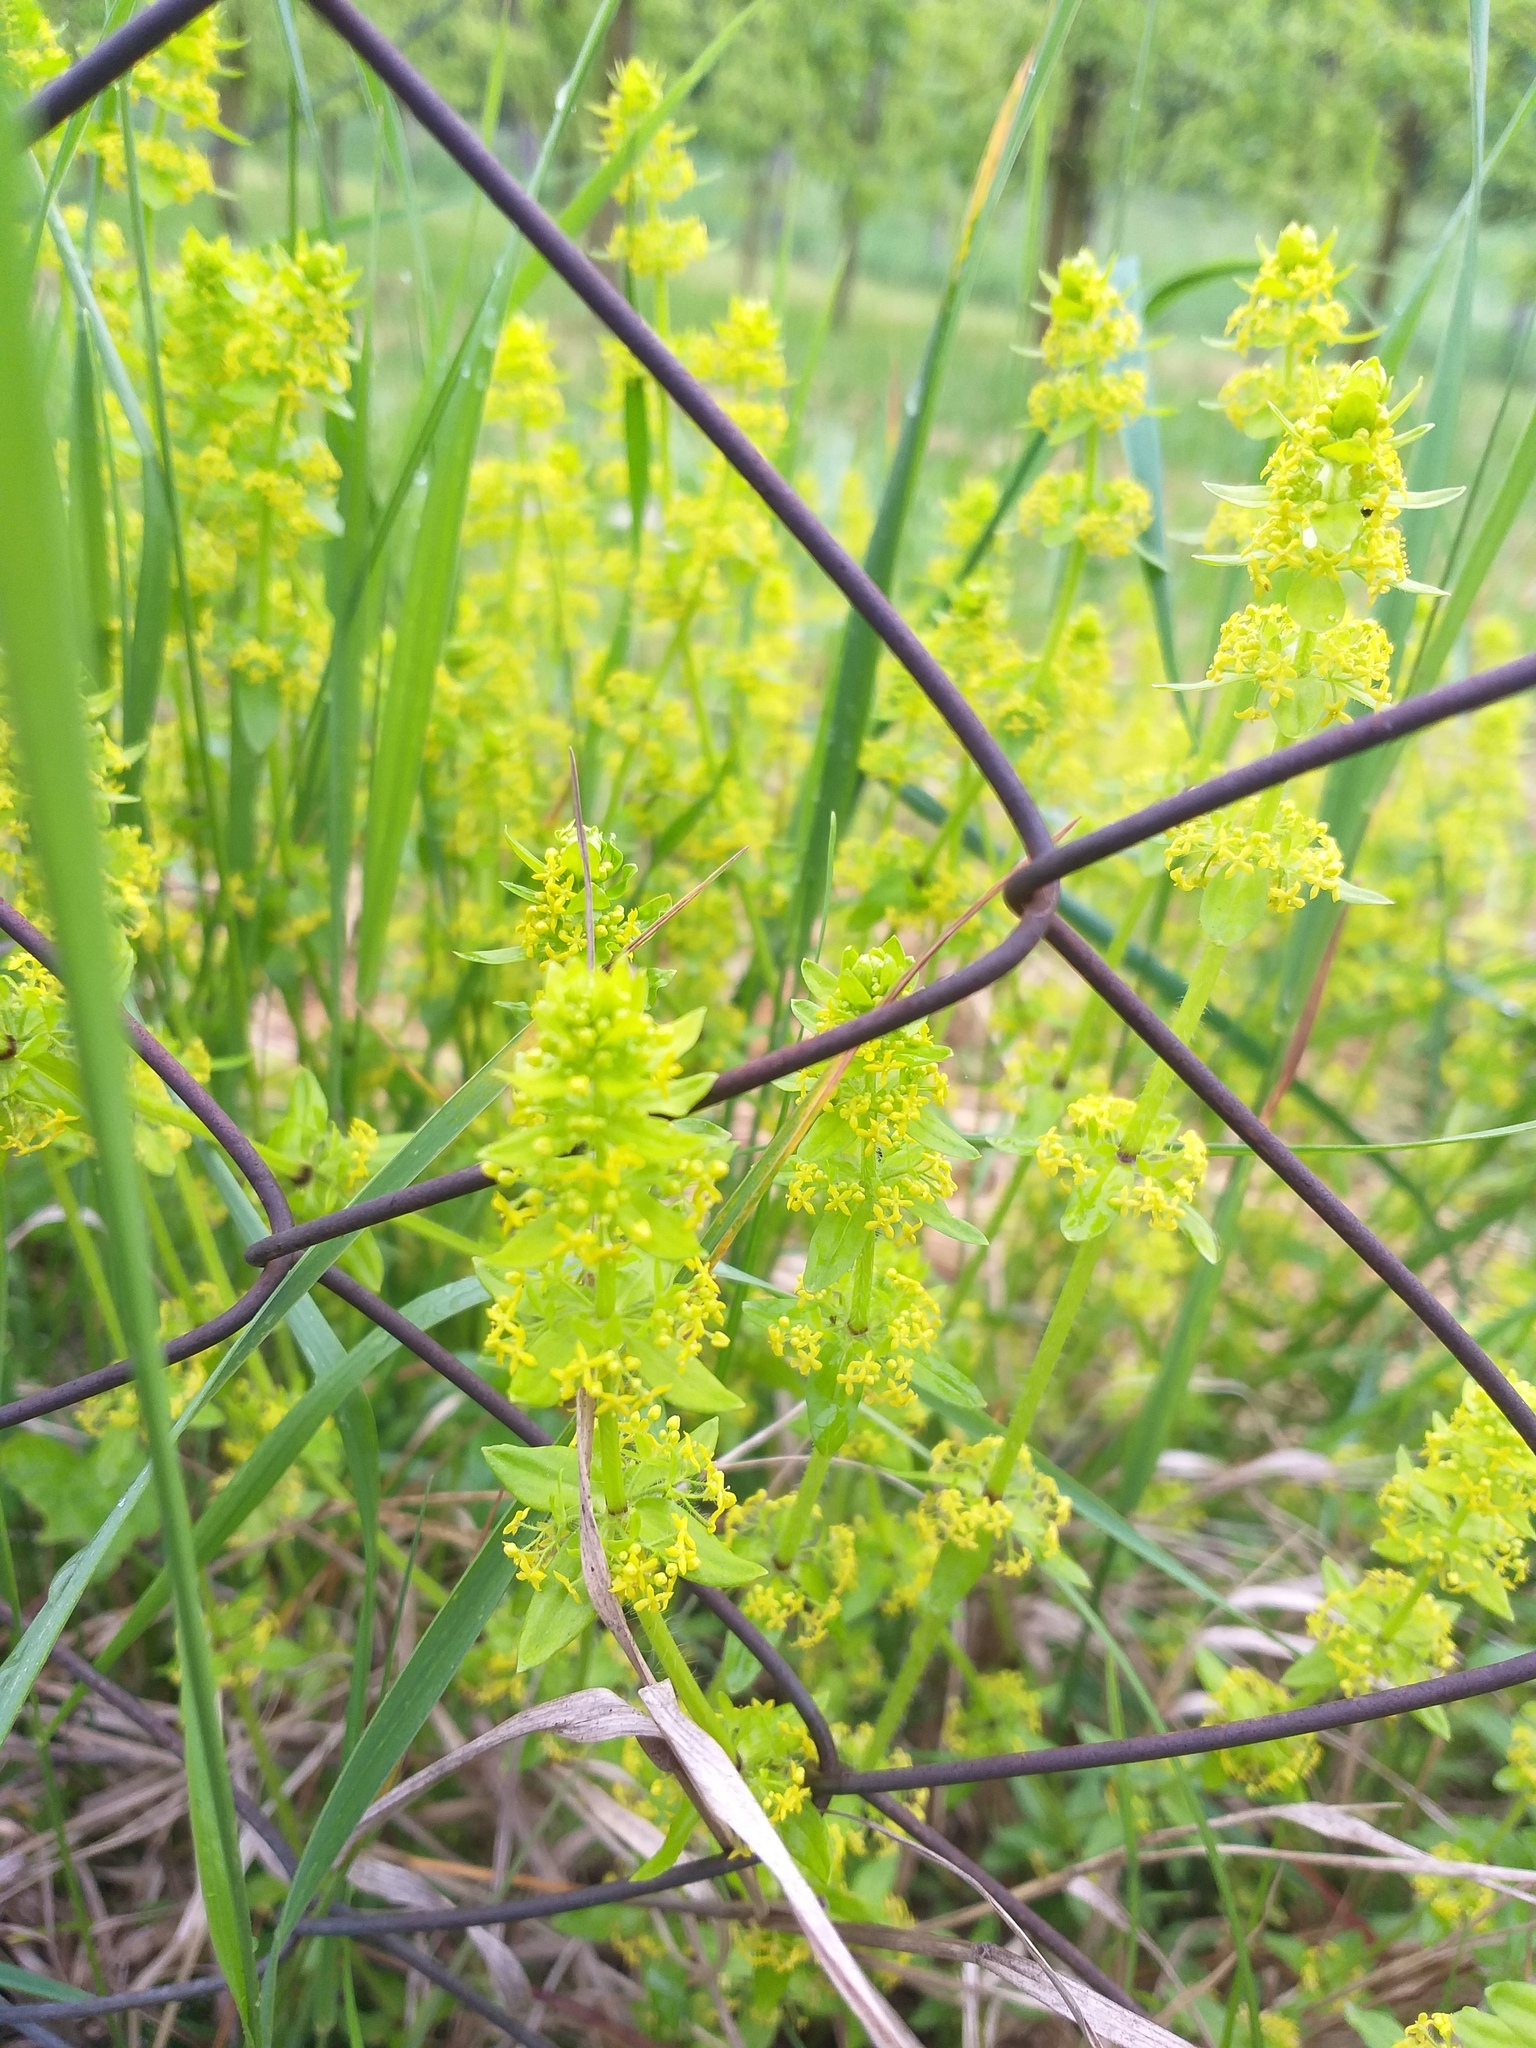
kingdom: Plantae
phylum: Tracheophyta
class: Magnoliopsida
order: Gentianales
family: Rubiaceae
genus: Cruciata
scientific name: Cruciata laevipes
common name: Crosswort
